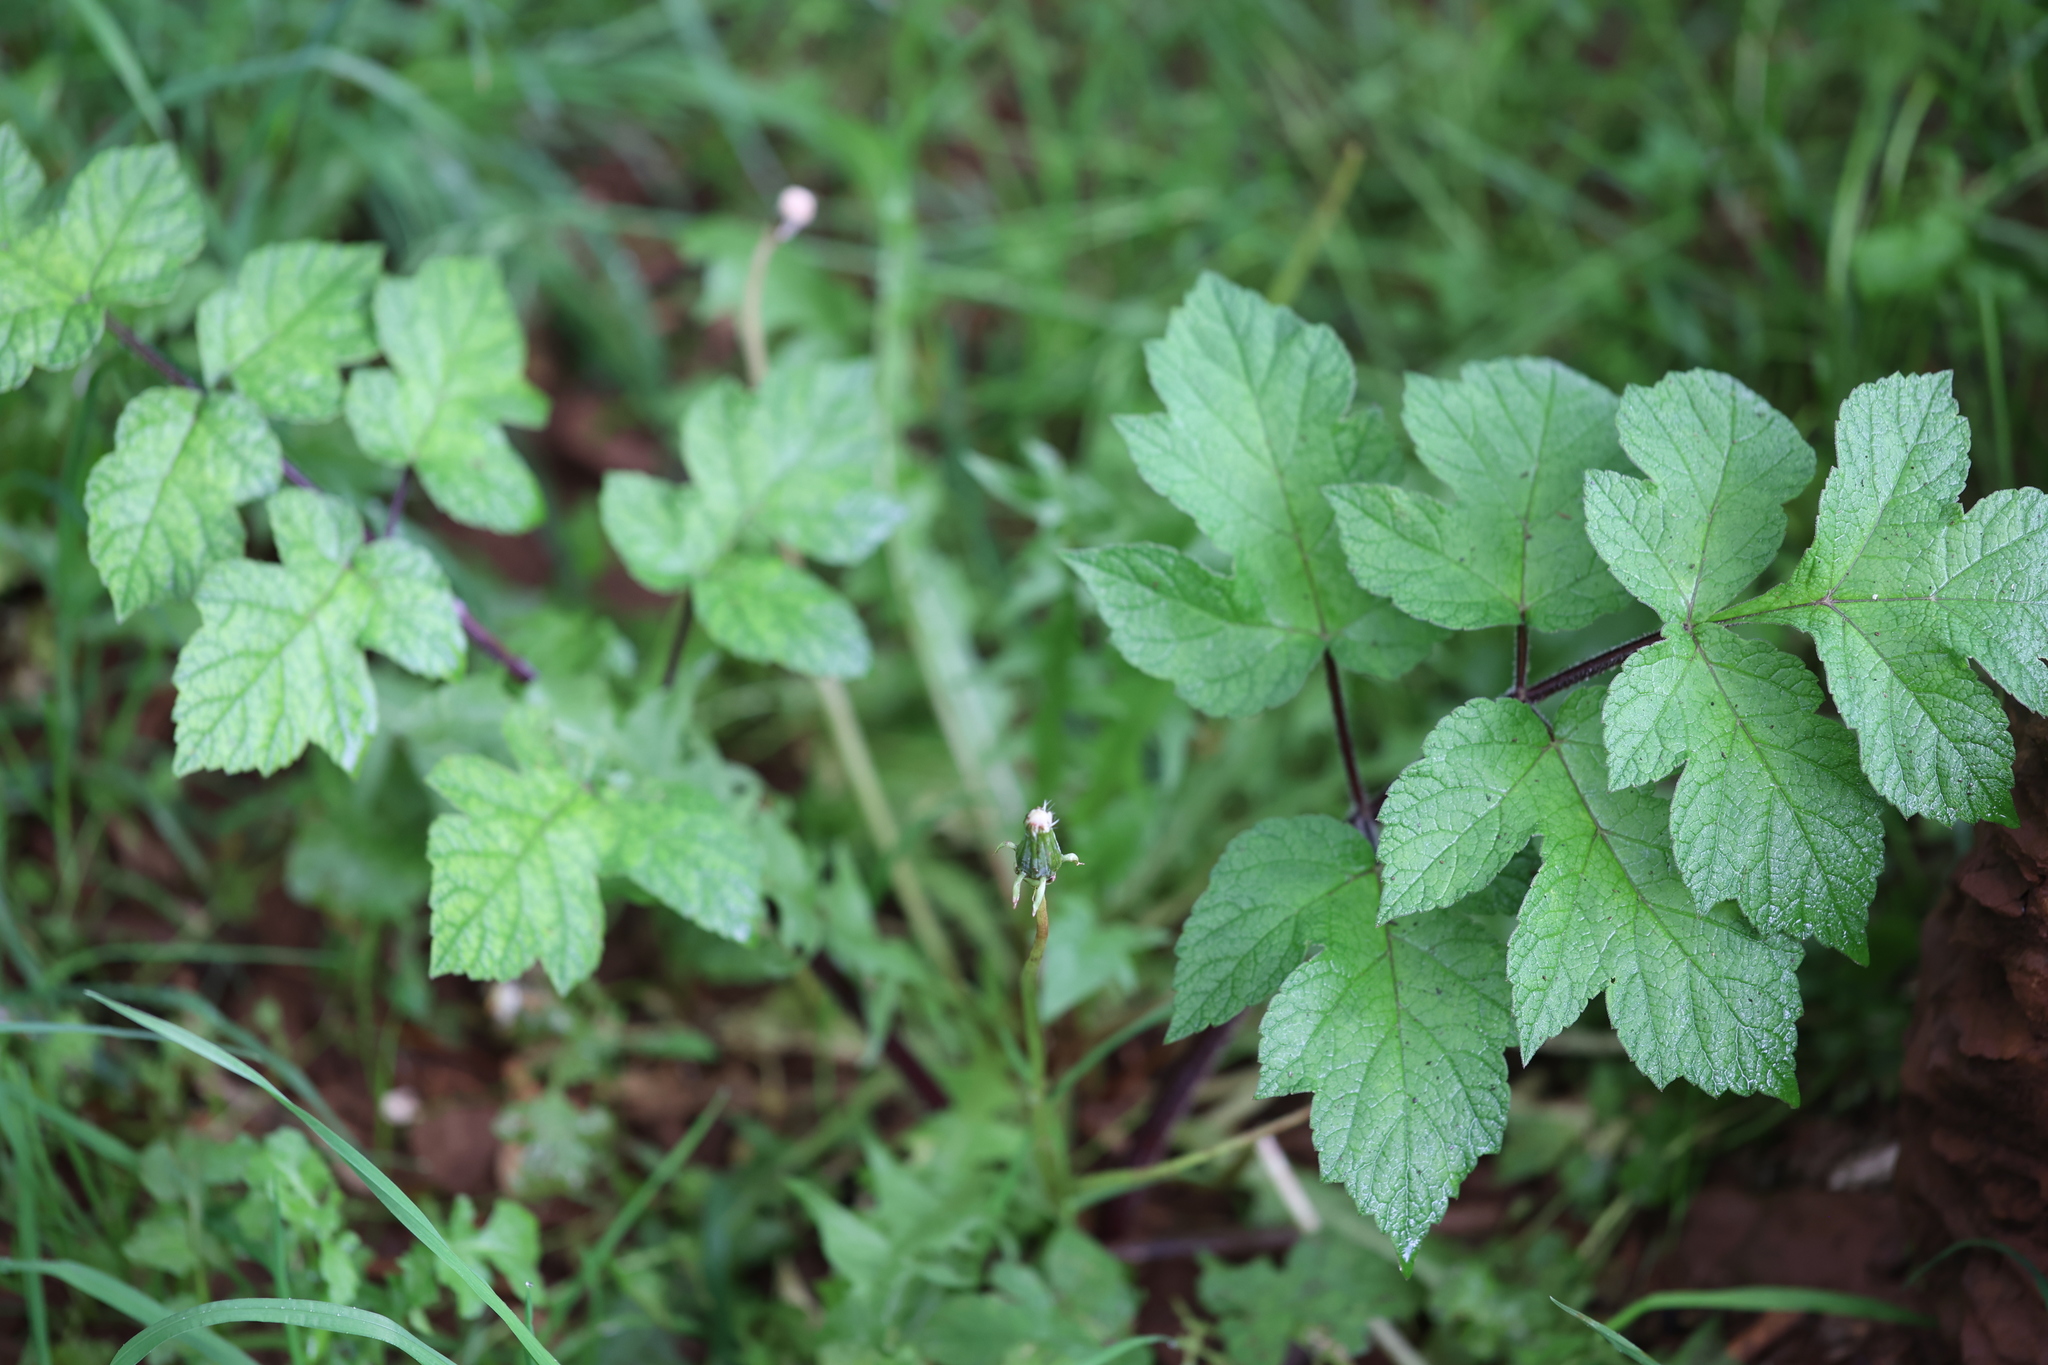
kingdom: Plantae
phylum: Tracheophyta
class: Magnoliopsida
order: Apiales
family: Apiaceae
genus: Heracleum
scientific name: Heracleum sphondylium
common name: Hogweed
